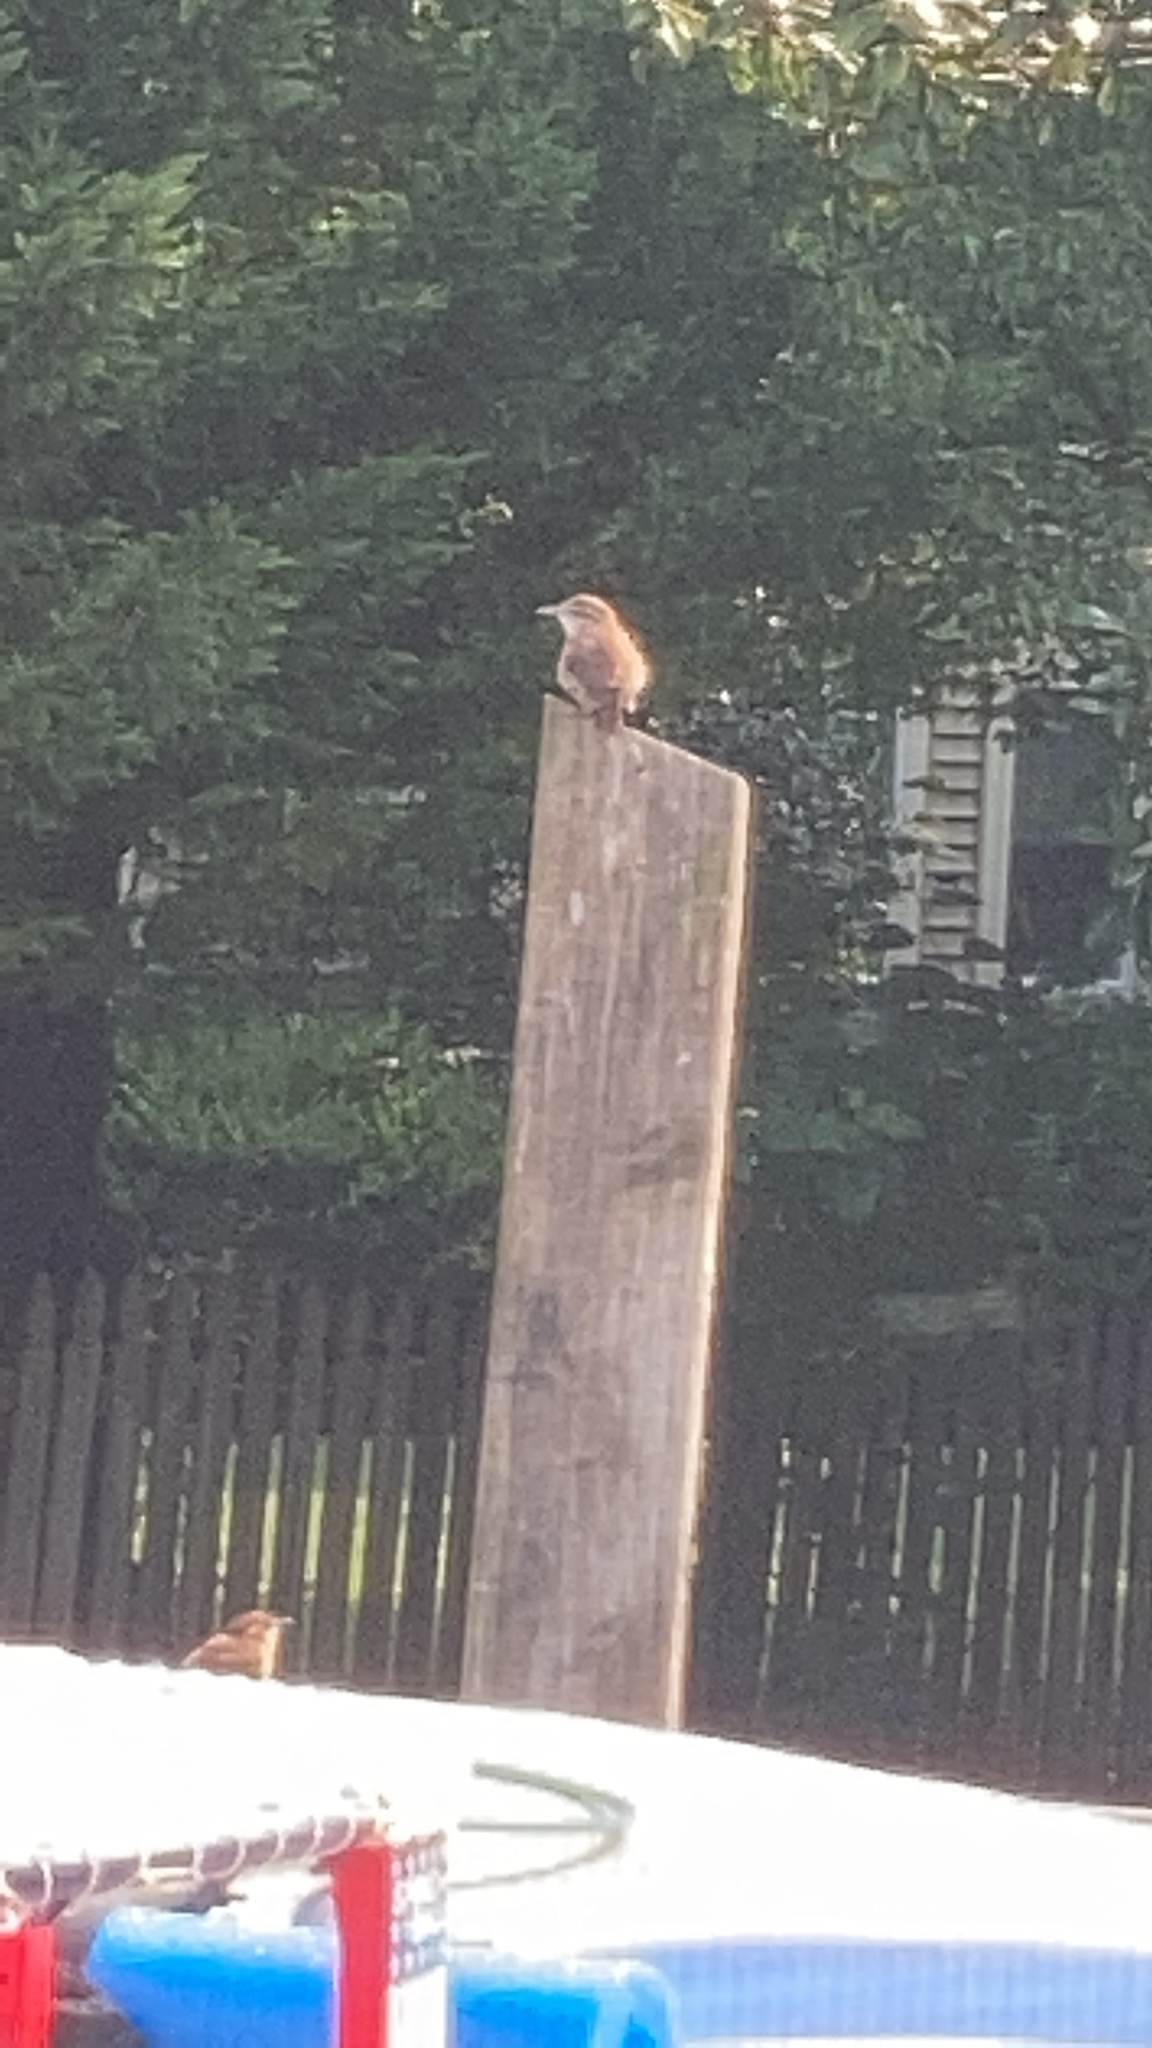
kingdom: Animalia
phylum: Chordata
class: Aves
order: Passeriformes
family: Troglodytidae
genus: Thryothorus
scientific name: Thryothorus ludovicianus
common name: Carolina wren
